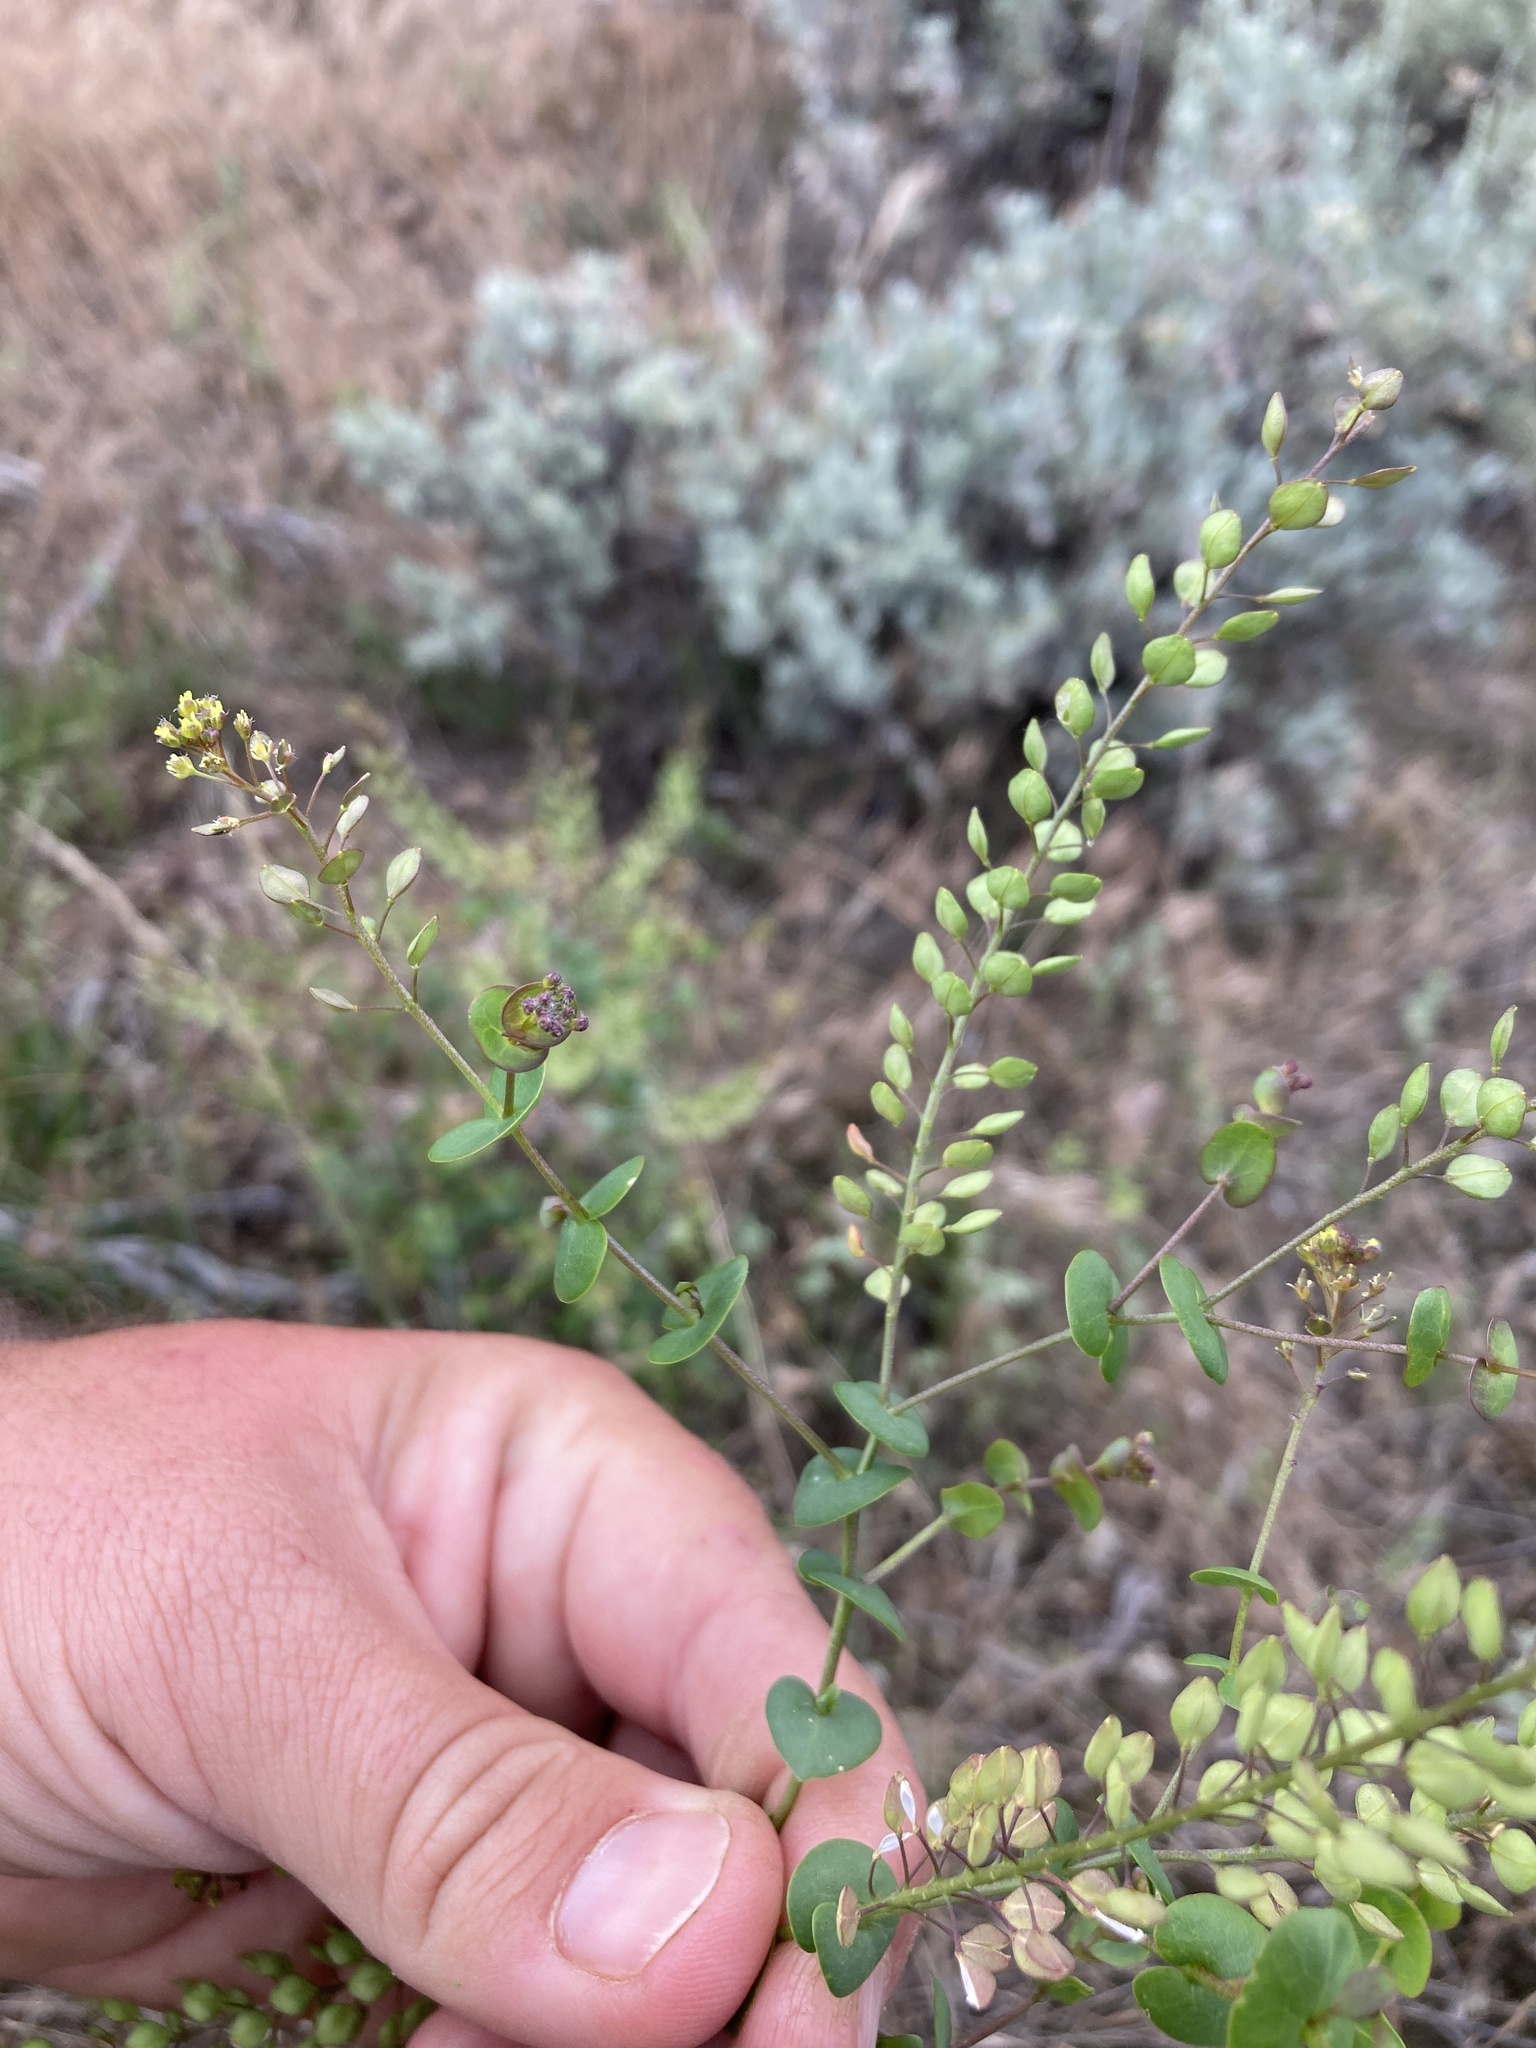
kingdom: Plantae
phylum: Tracheophyta
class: Magnoliopsida
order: Brassicales
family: Brassicaceae
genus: Lepidium
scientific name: Lepidium perfoliatum
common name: Perfoliate pepperwort
